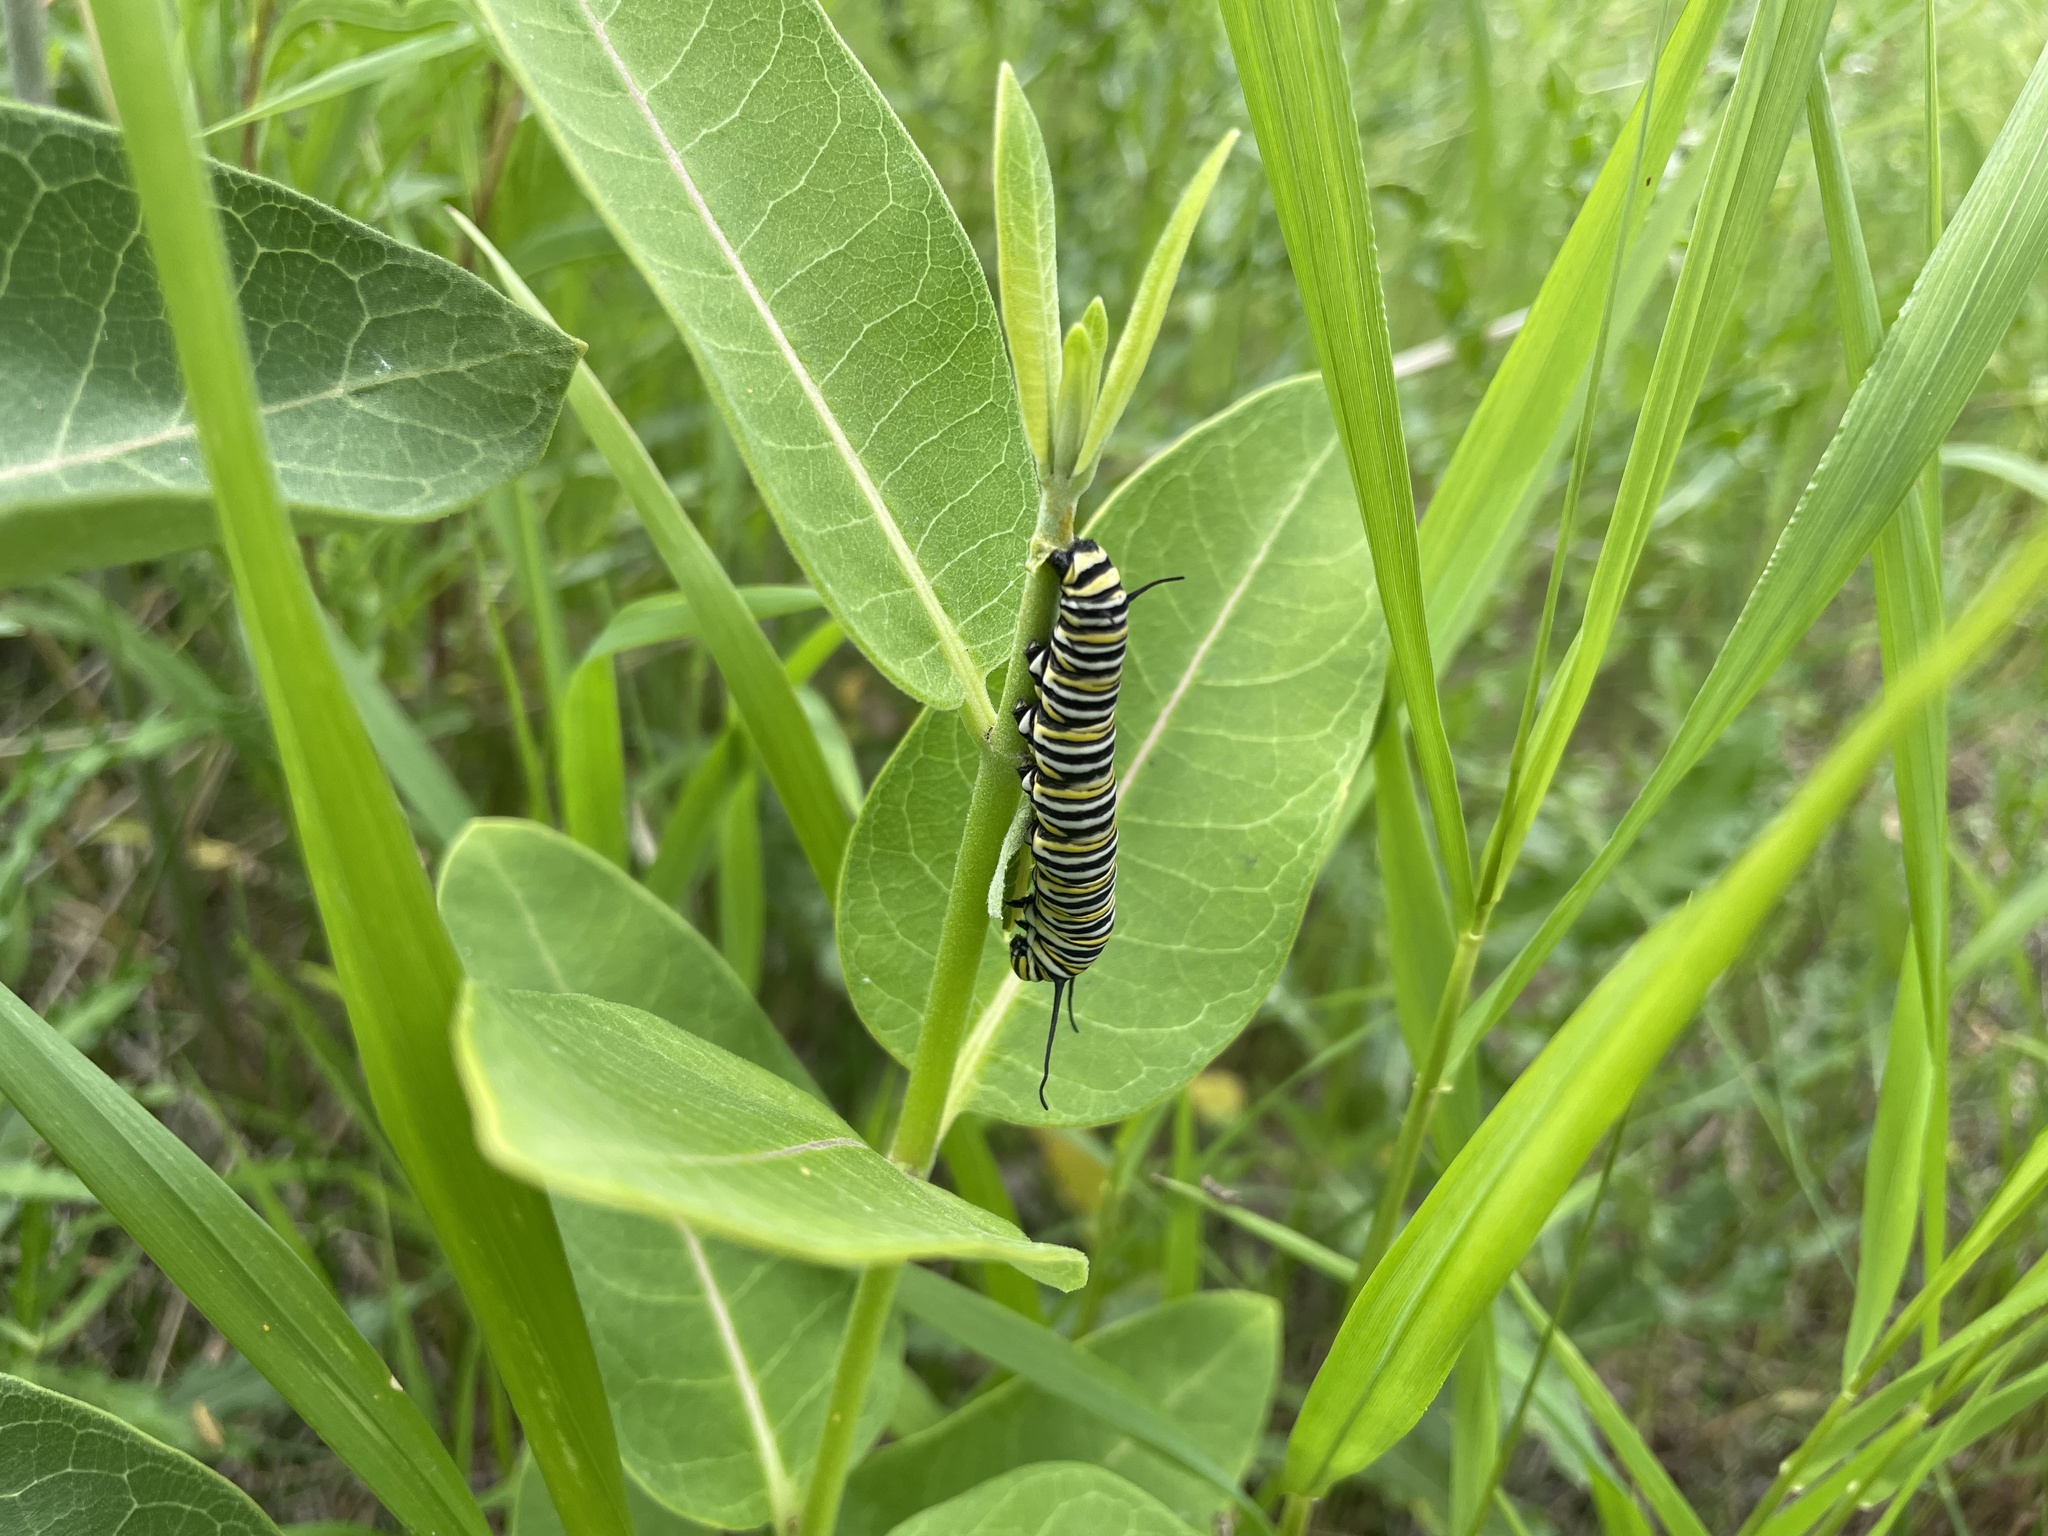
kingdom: Animalia
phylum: Arthropoda
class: Insecta
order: Lepidoptera
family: Nymphalidae
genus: Danaus
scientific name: Danaus plexippus
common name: Monarch
